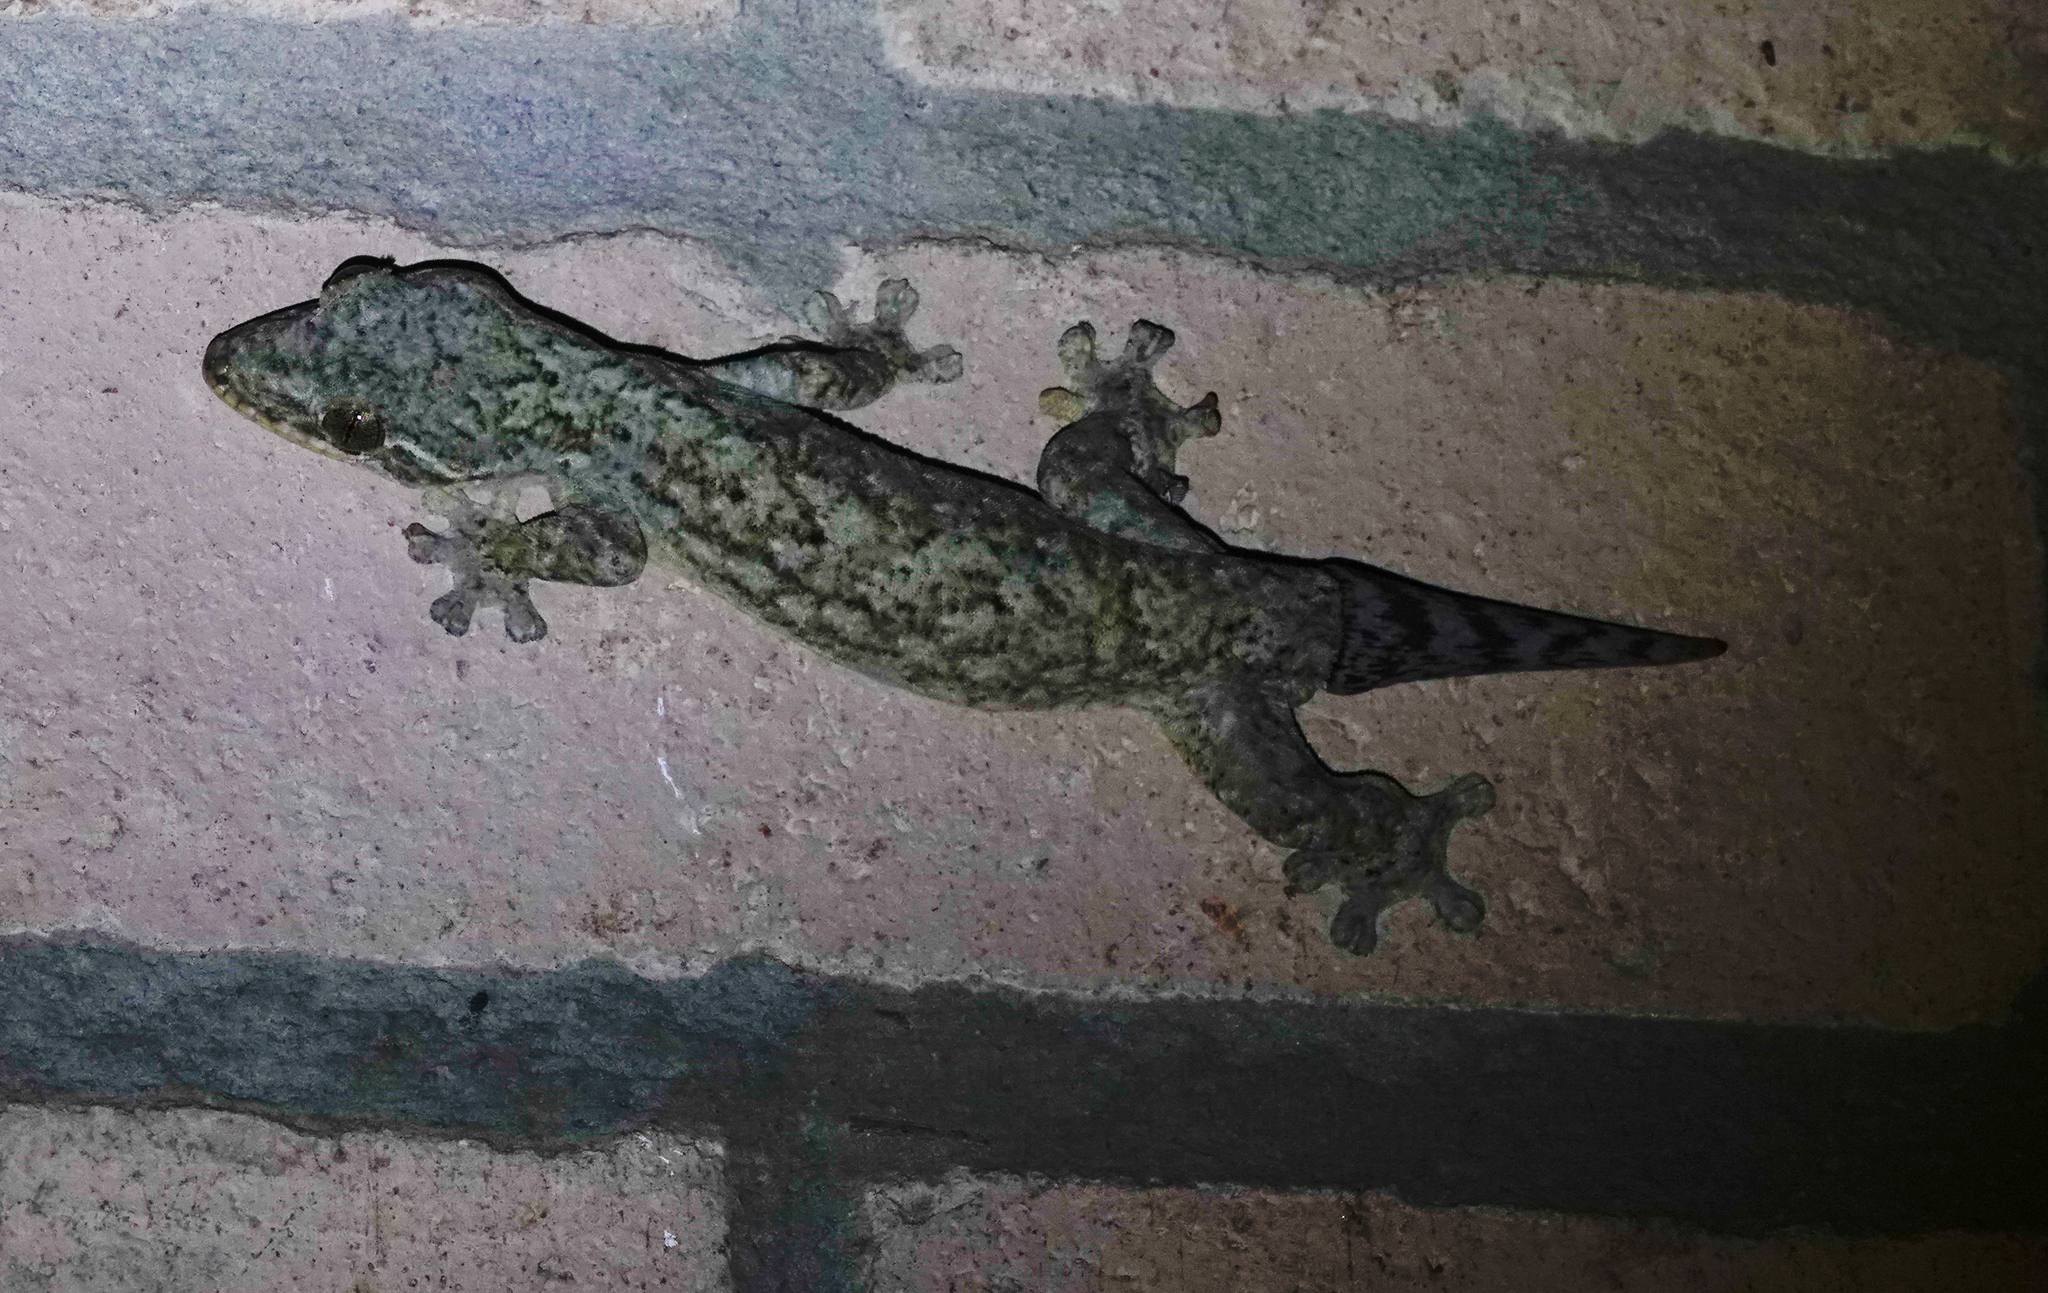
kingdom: Animalia
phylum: Chordata
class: Squamata
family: Phyllodactylidae
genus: Thecadactylus
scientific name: Thecadactylus rapicauda
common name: Turnip-tailed gecko
